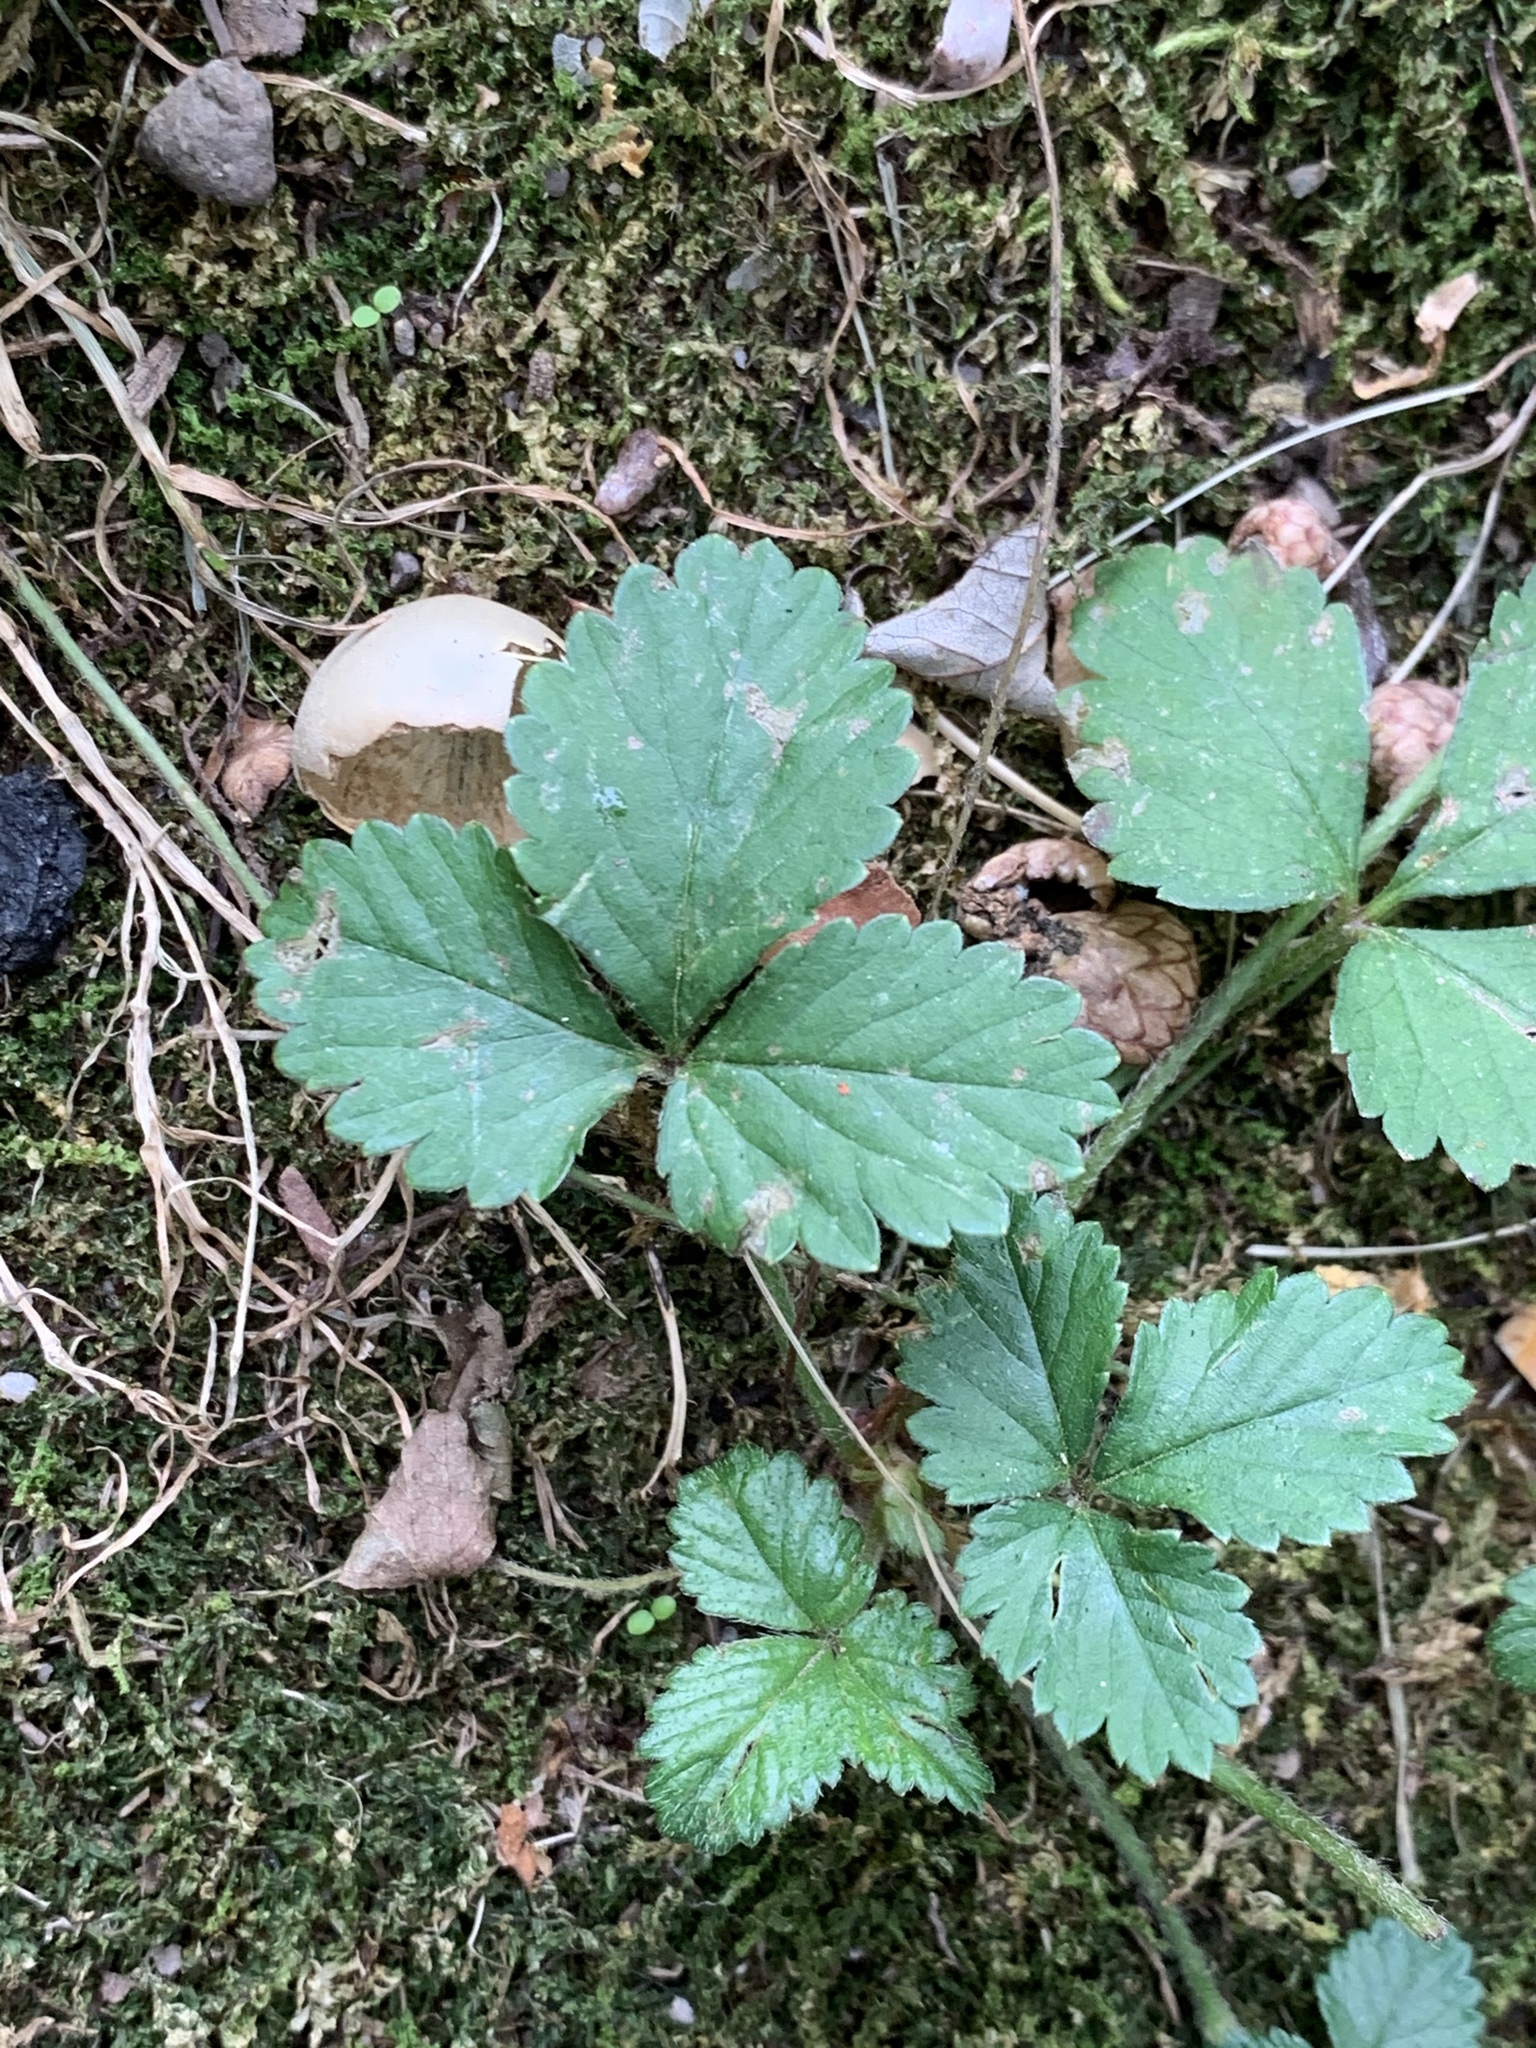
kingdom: Plantae
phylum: Tracheophyta
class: Magnoliopsida
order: Rosales
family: Rosaceae
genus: Potentilla
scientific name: Potentilla indica
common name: Yellow-flowered strawberry
